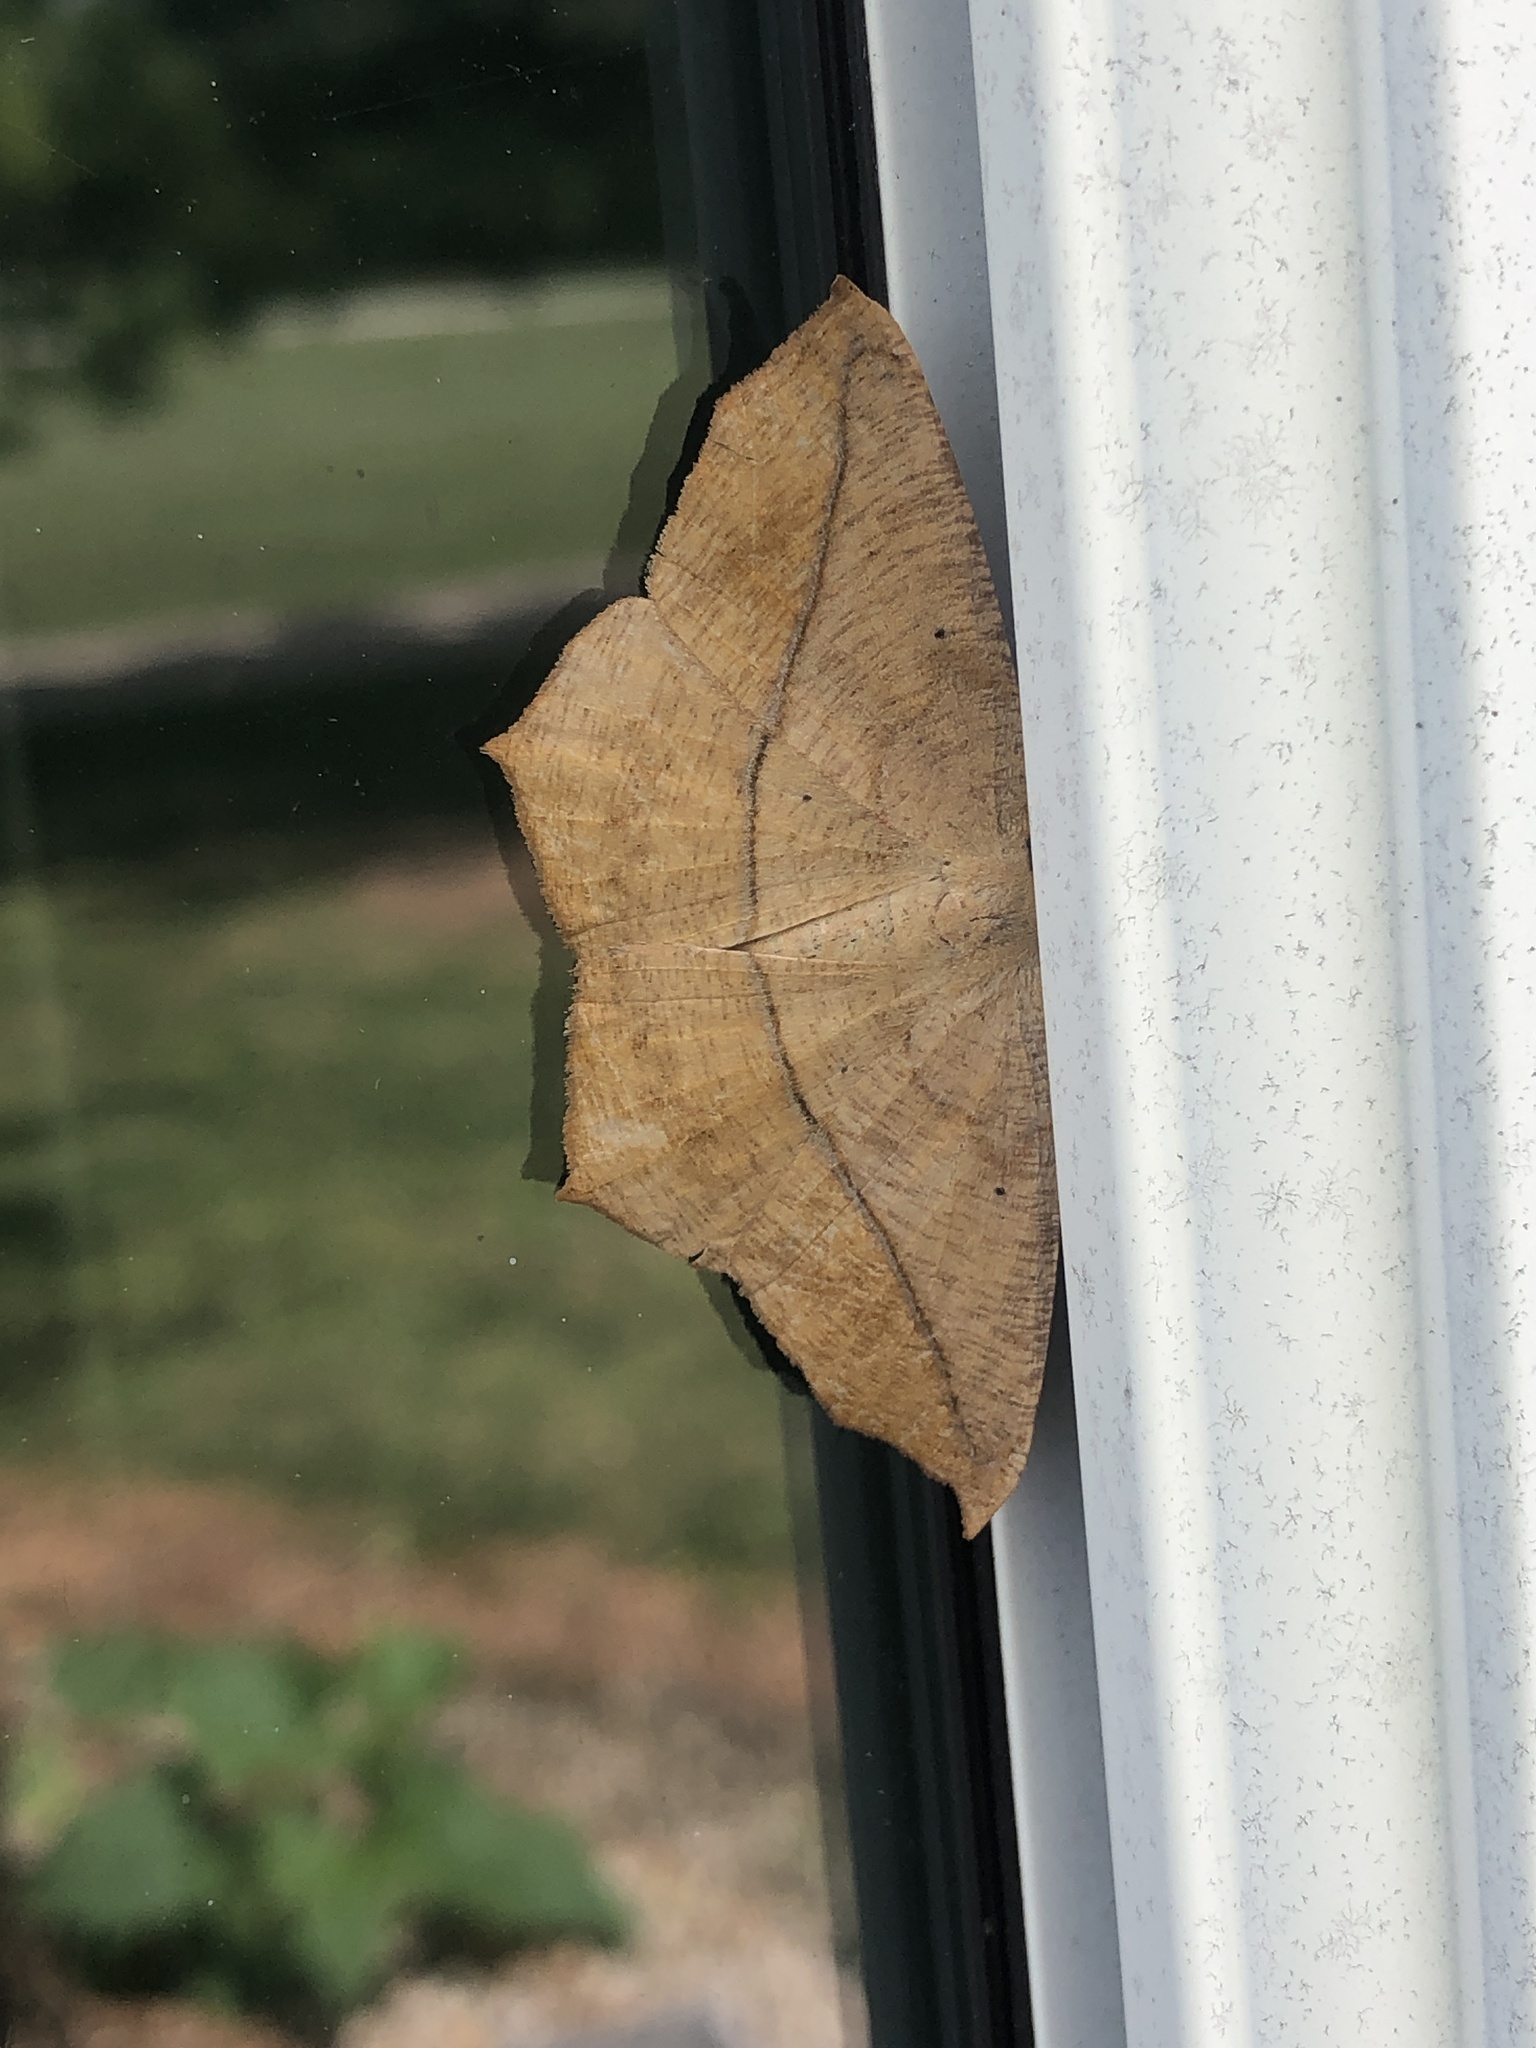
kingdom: Animalia
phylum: Arthropoda
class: Insecta
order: Lepidoptera
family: Geometridae
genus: Prochoerodes
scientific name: Prochoerodes lineola
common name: Large maple spanworm
